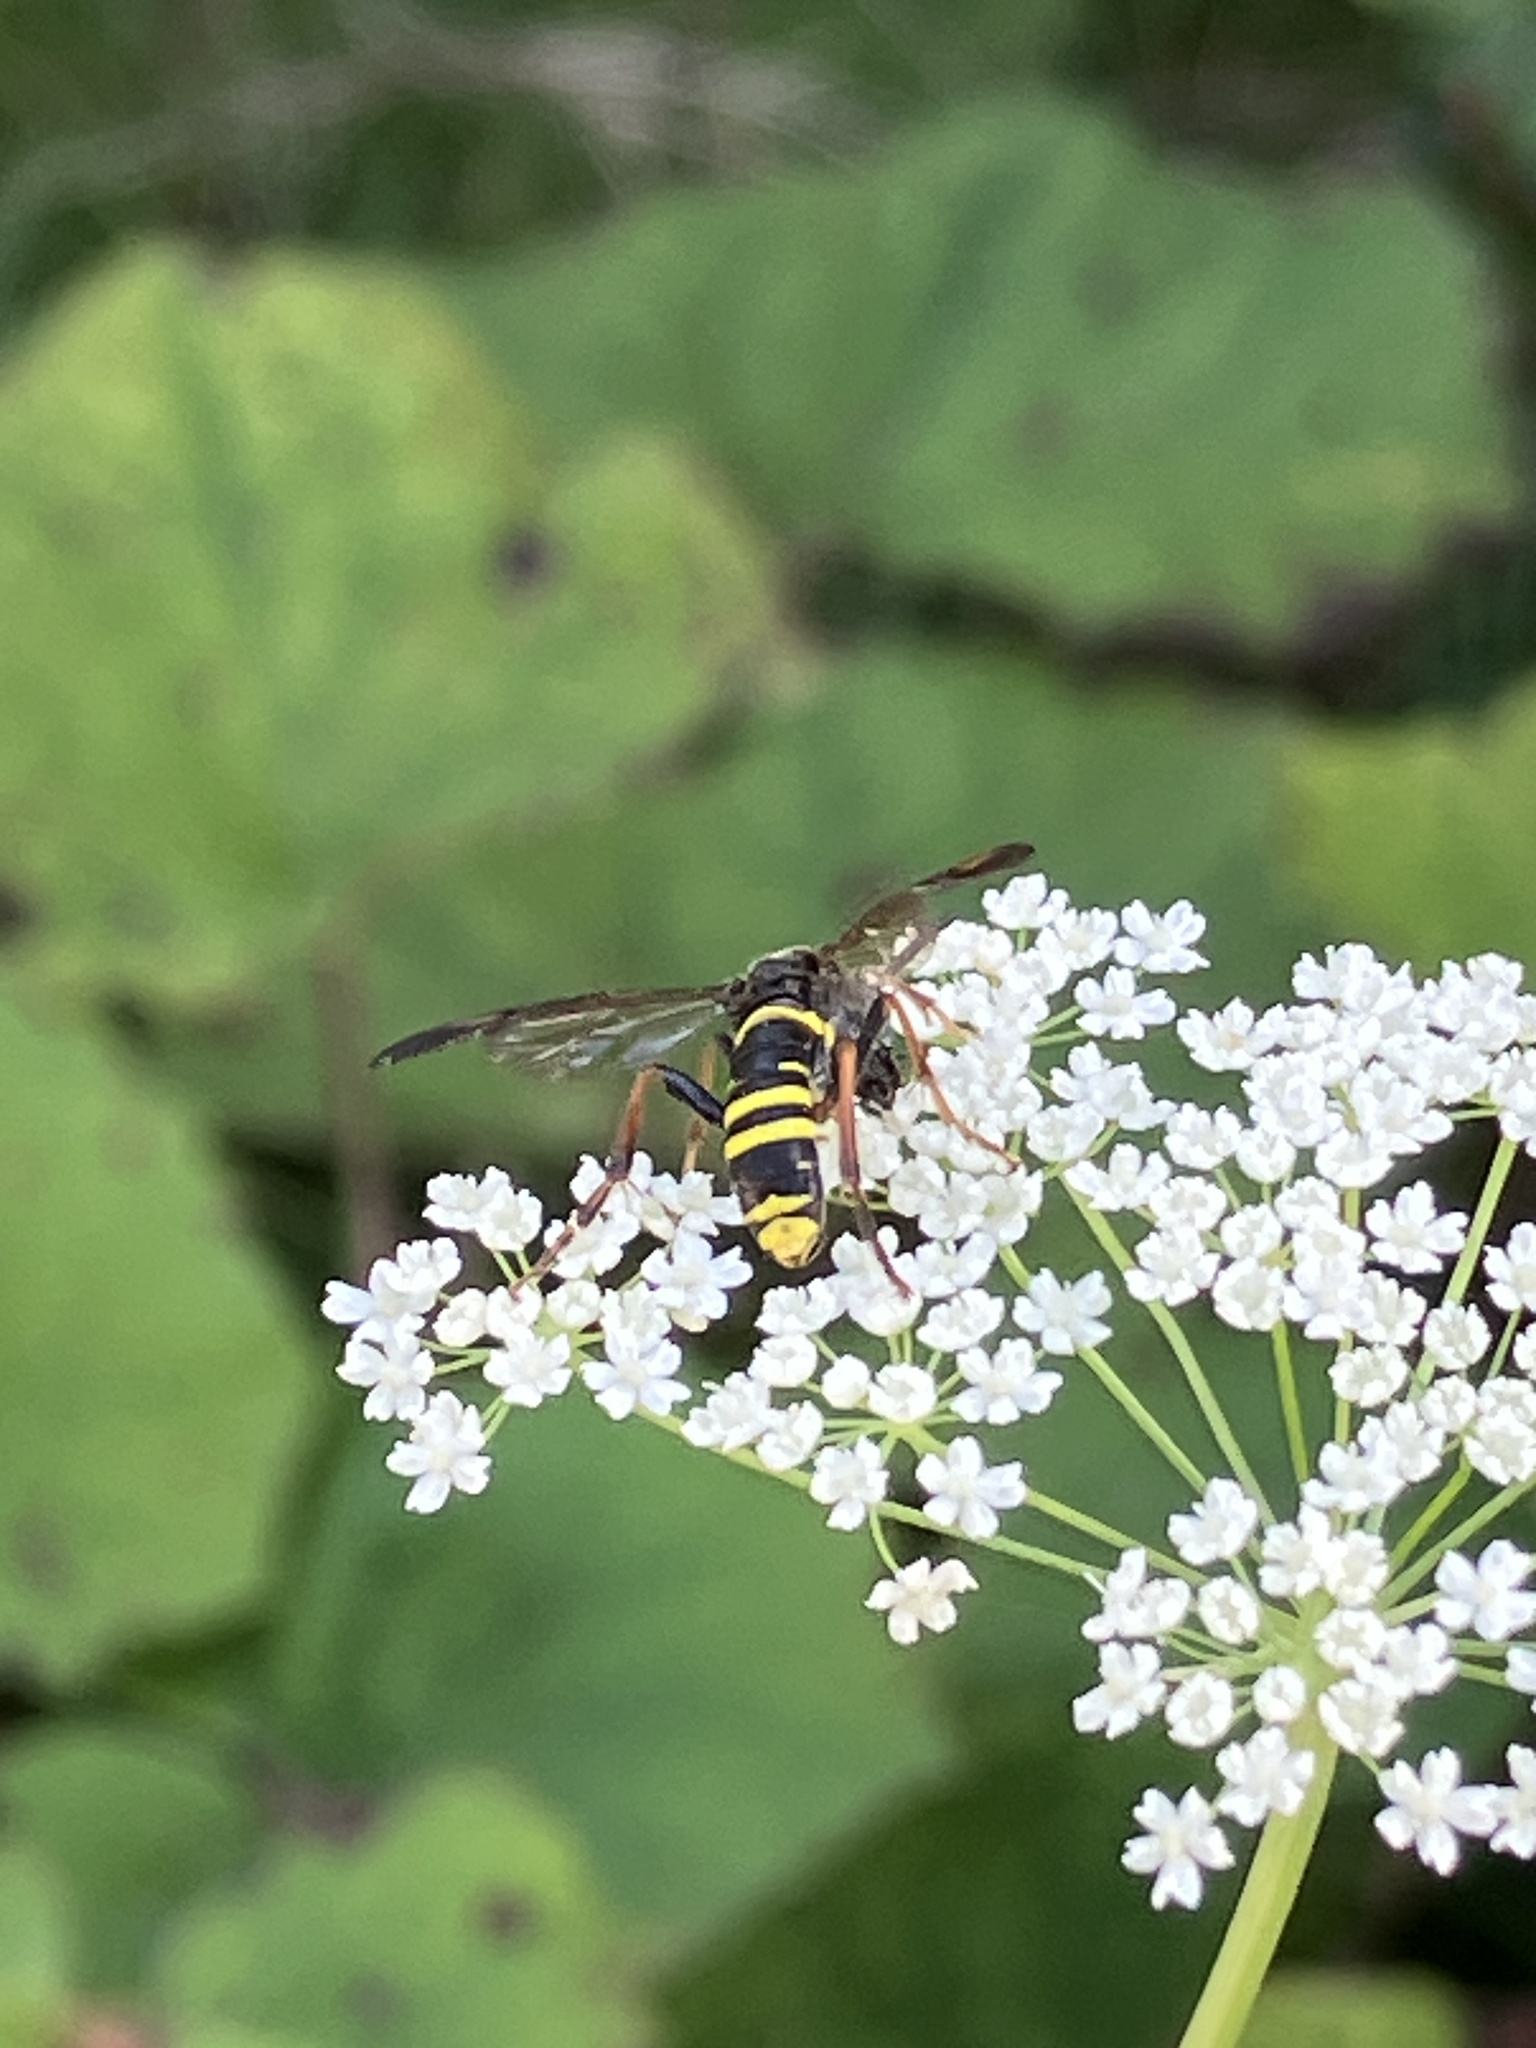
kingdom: Animalia
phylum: Arthropoda
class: Insecta
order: Hymenoptera
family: Tenthredinidae
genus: Tenthredo
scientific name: Tenthredo vespa
